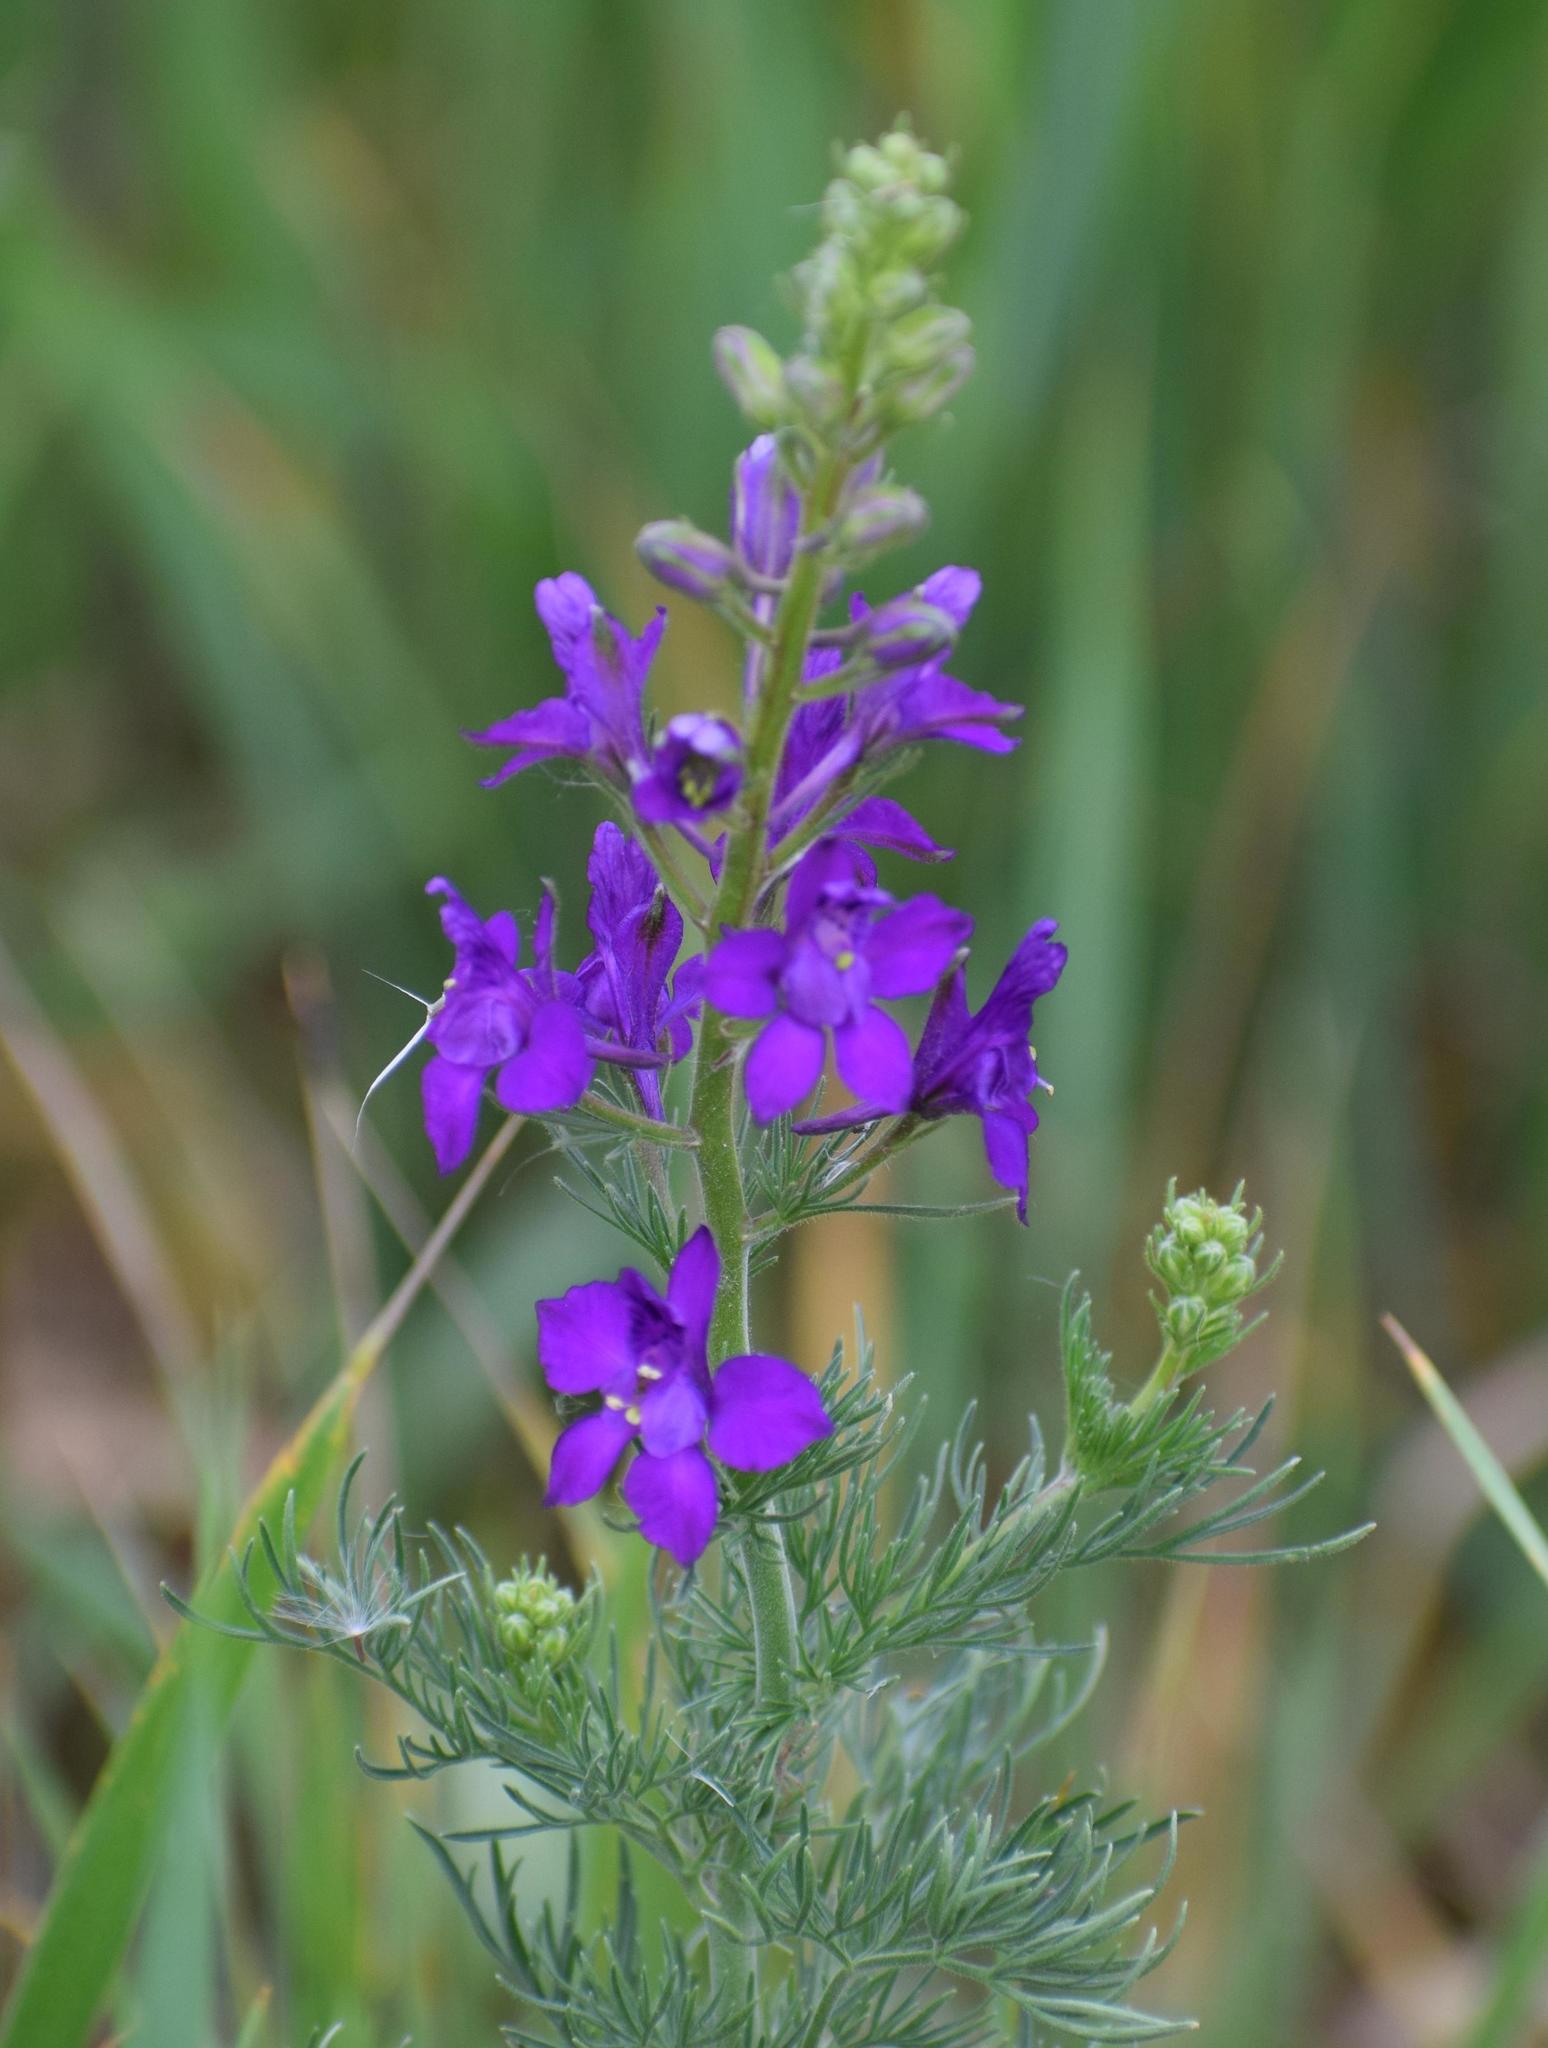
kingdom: Plantae
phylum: Tracheophyta
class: Magnoliopsida
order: Ranunculales
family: Ranunculaceae
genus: Delphinium
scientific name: Delphinium consolida
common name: Branching larkspur
